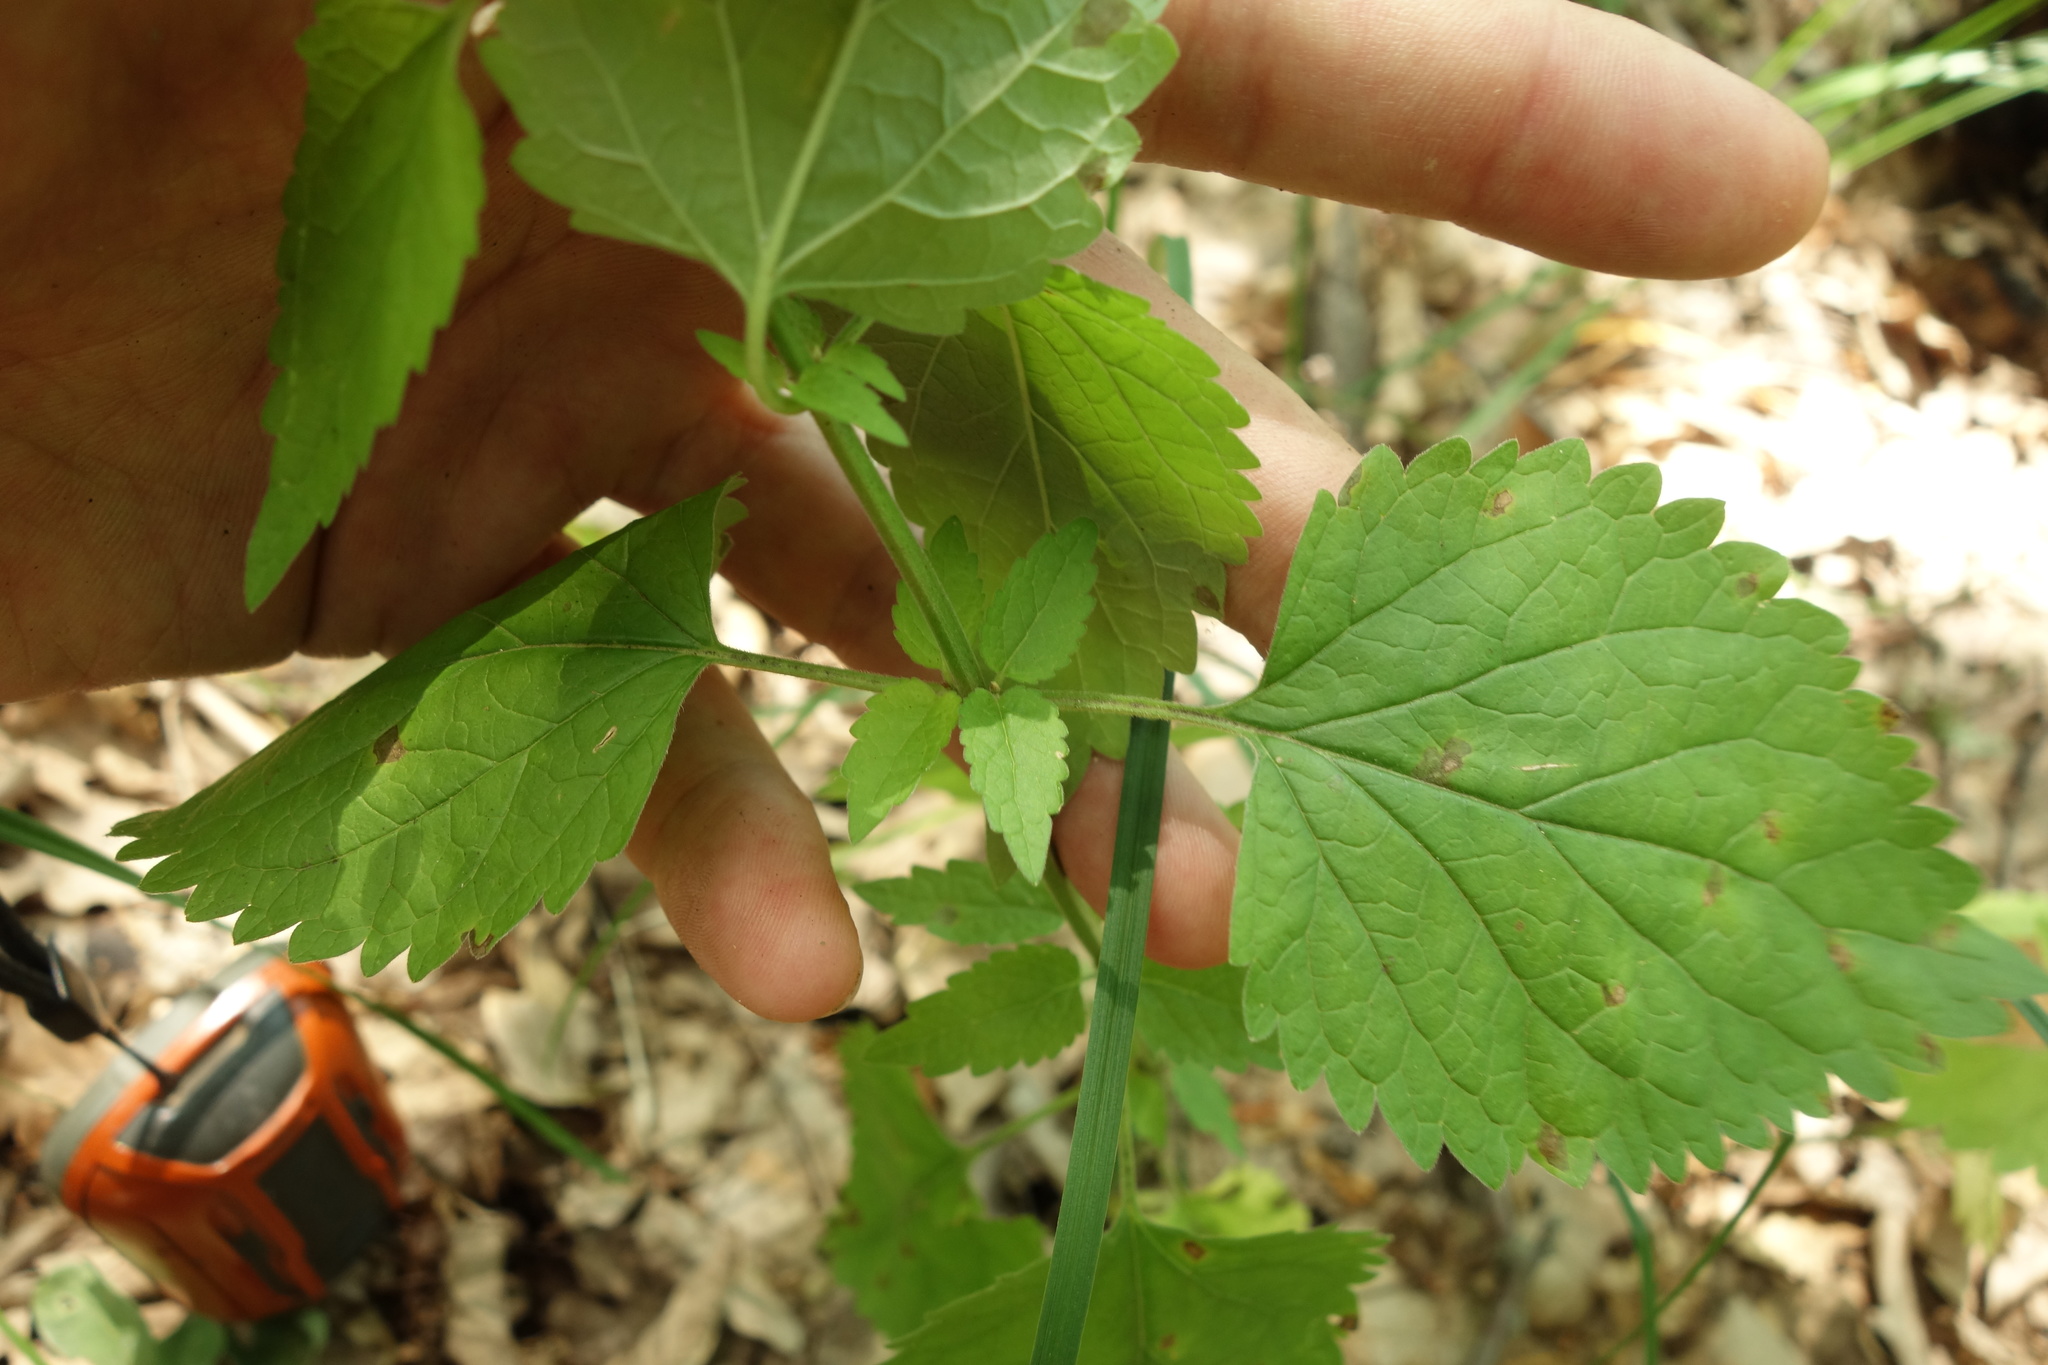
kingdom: Plantae
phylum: Tracheophyta
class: Magnoliopsida
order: Lamiales
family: Lamiaceae
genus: Scutellaria
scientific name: Scutellaria altissima
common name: Somerset skullcap
